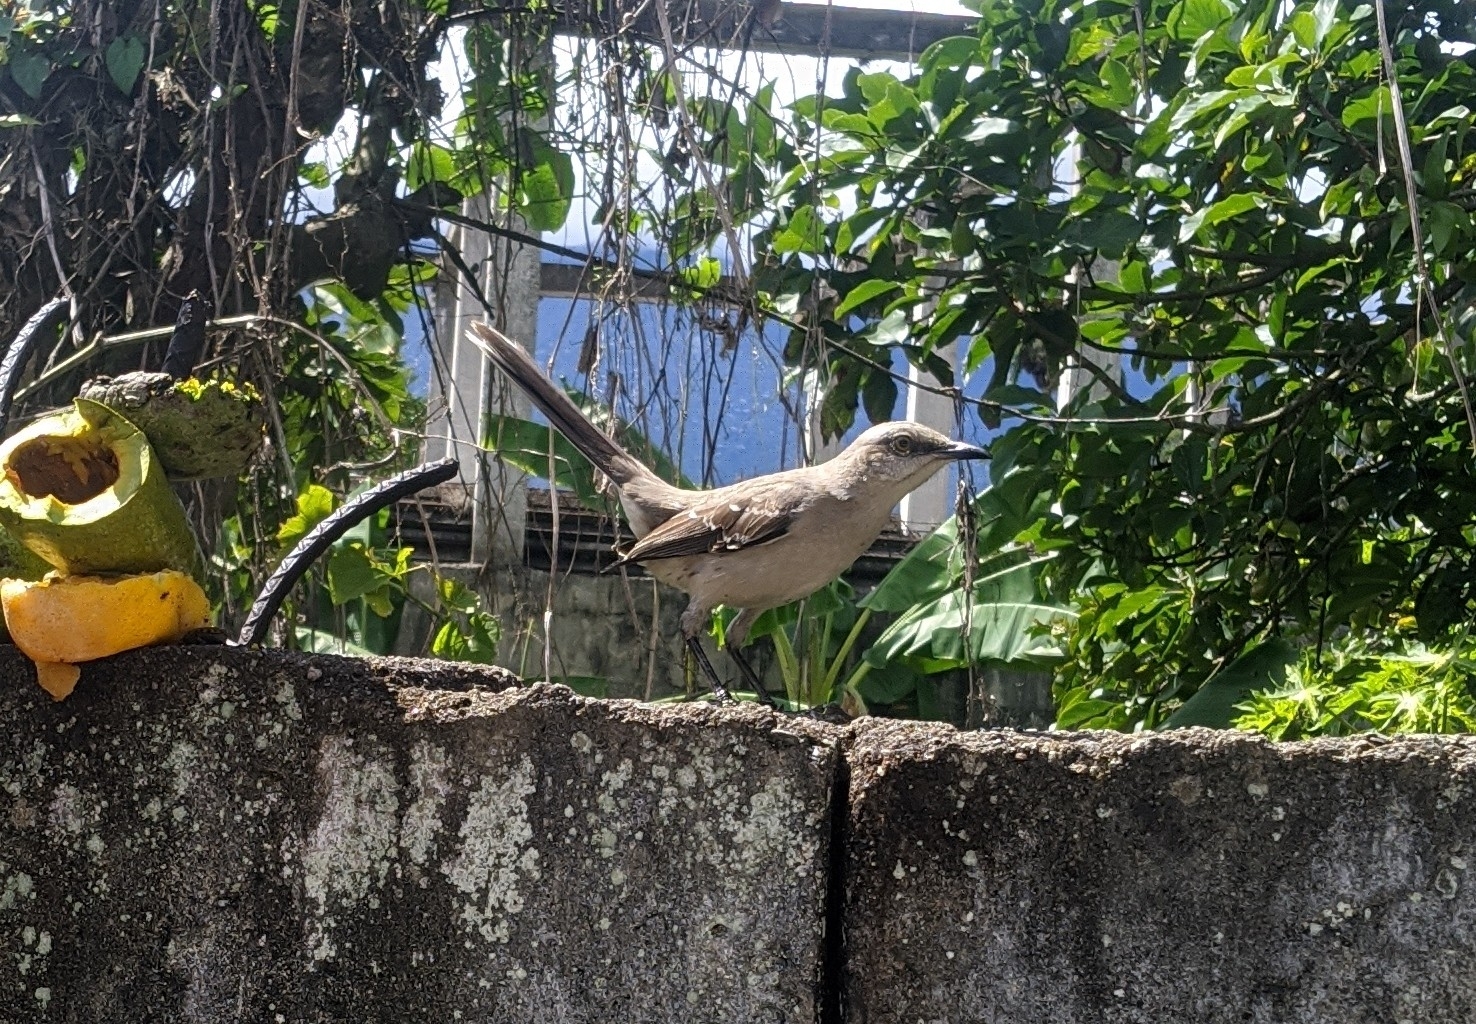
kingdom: Animalia
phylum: Chordata
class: Aves
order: Passeriformes
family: Mimidae
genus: Mimus
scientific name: Mimus gilvus
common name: Tropical mockingbird
